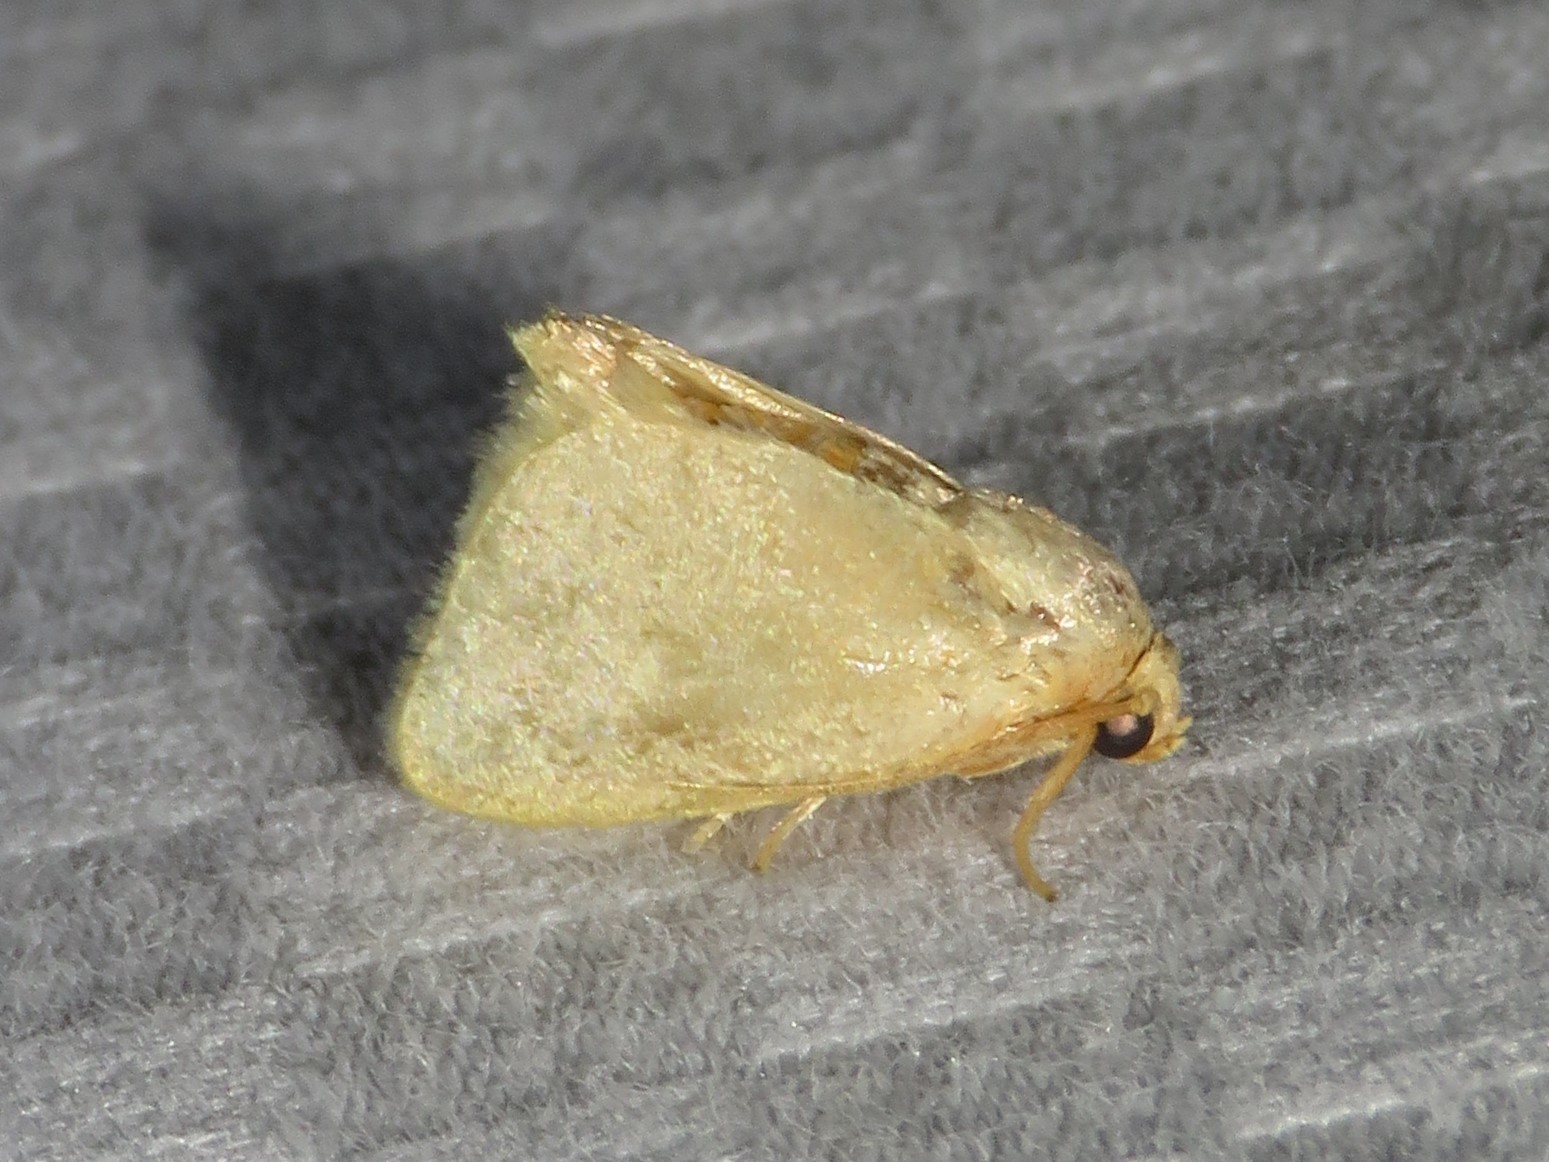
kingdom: Animalia
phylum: Arthropoda
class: Insecta
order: Lepidoptera
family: Limacodidae
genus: Tortricidia
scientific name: Tortricidia pallida
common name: Red-crossed button slug moth
